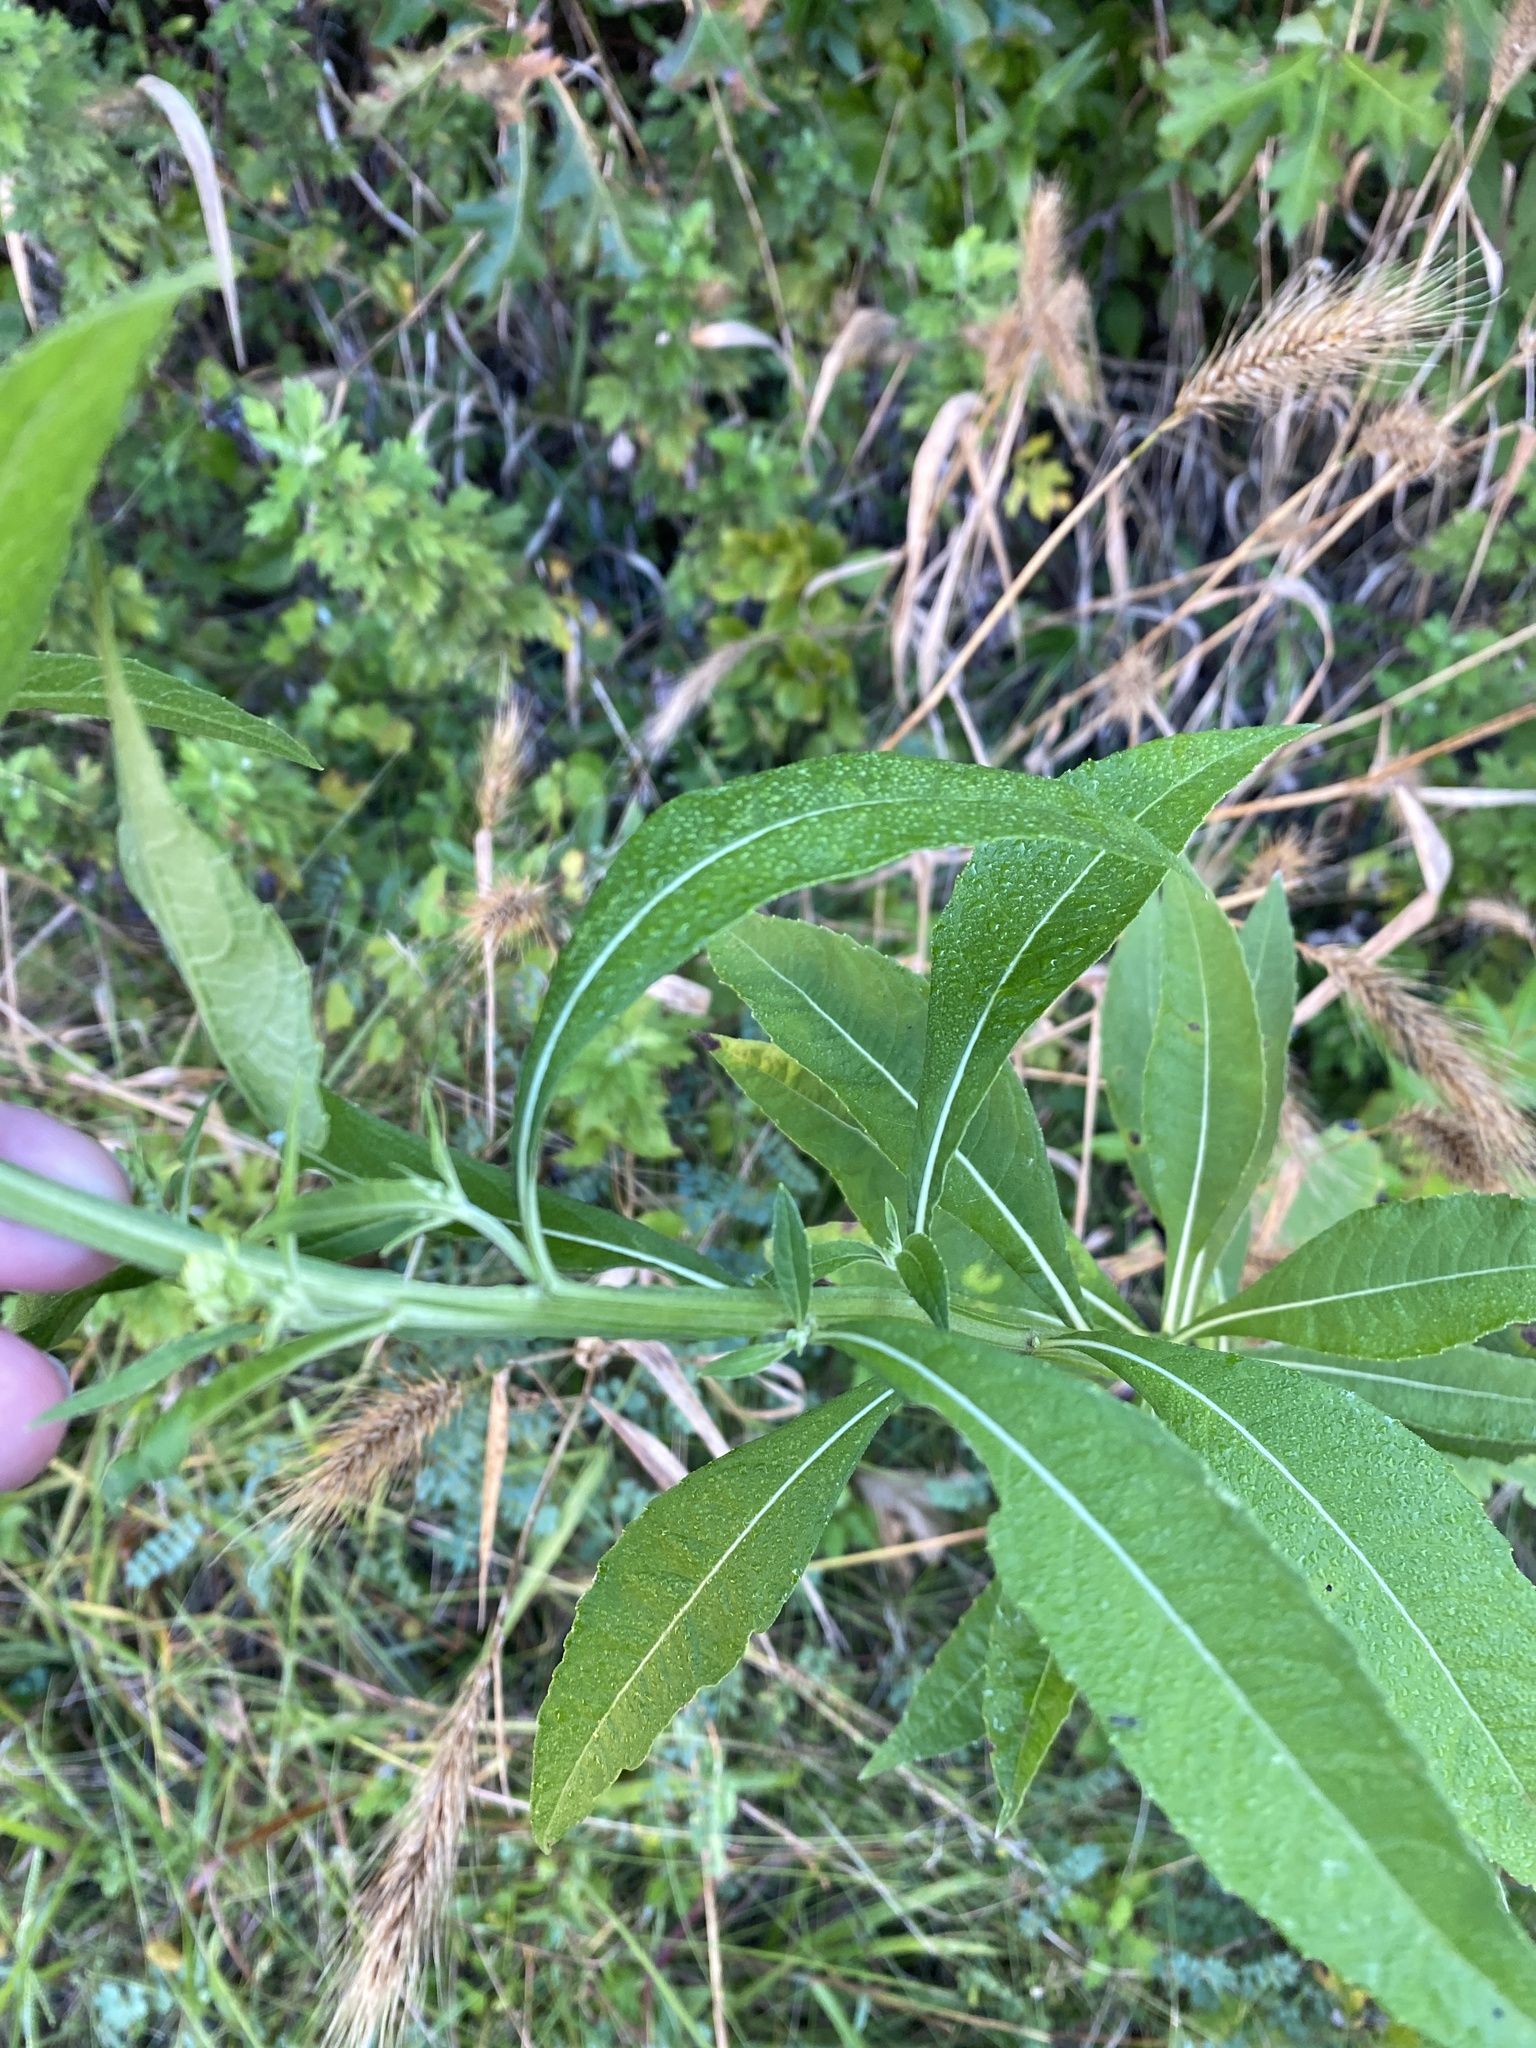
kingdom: Plantae
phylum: Tracheophyta
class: Magnoliopsida
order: Asterales
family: Asteraceae
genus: Verbesina
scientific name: Verbesina alternifolia
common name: Wingstem
